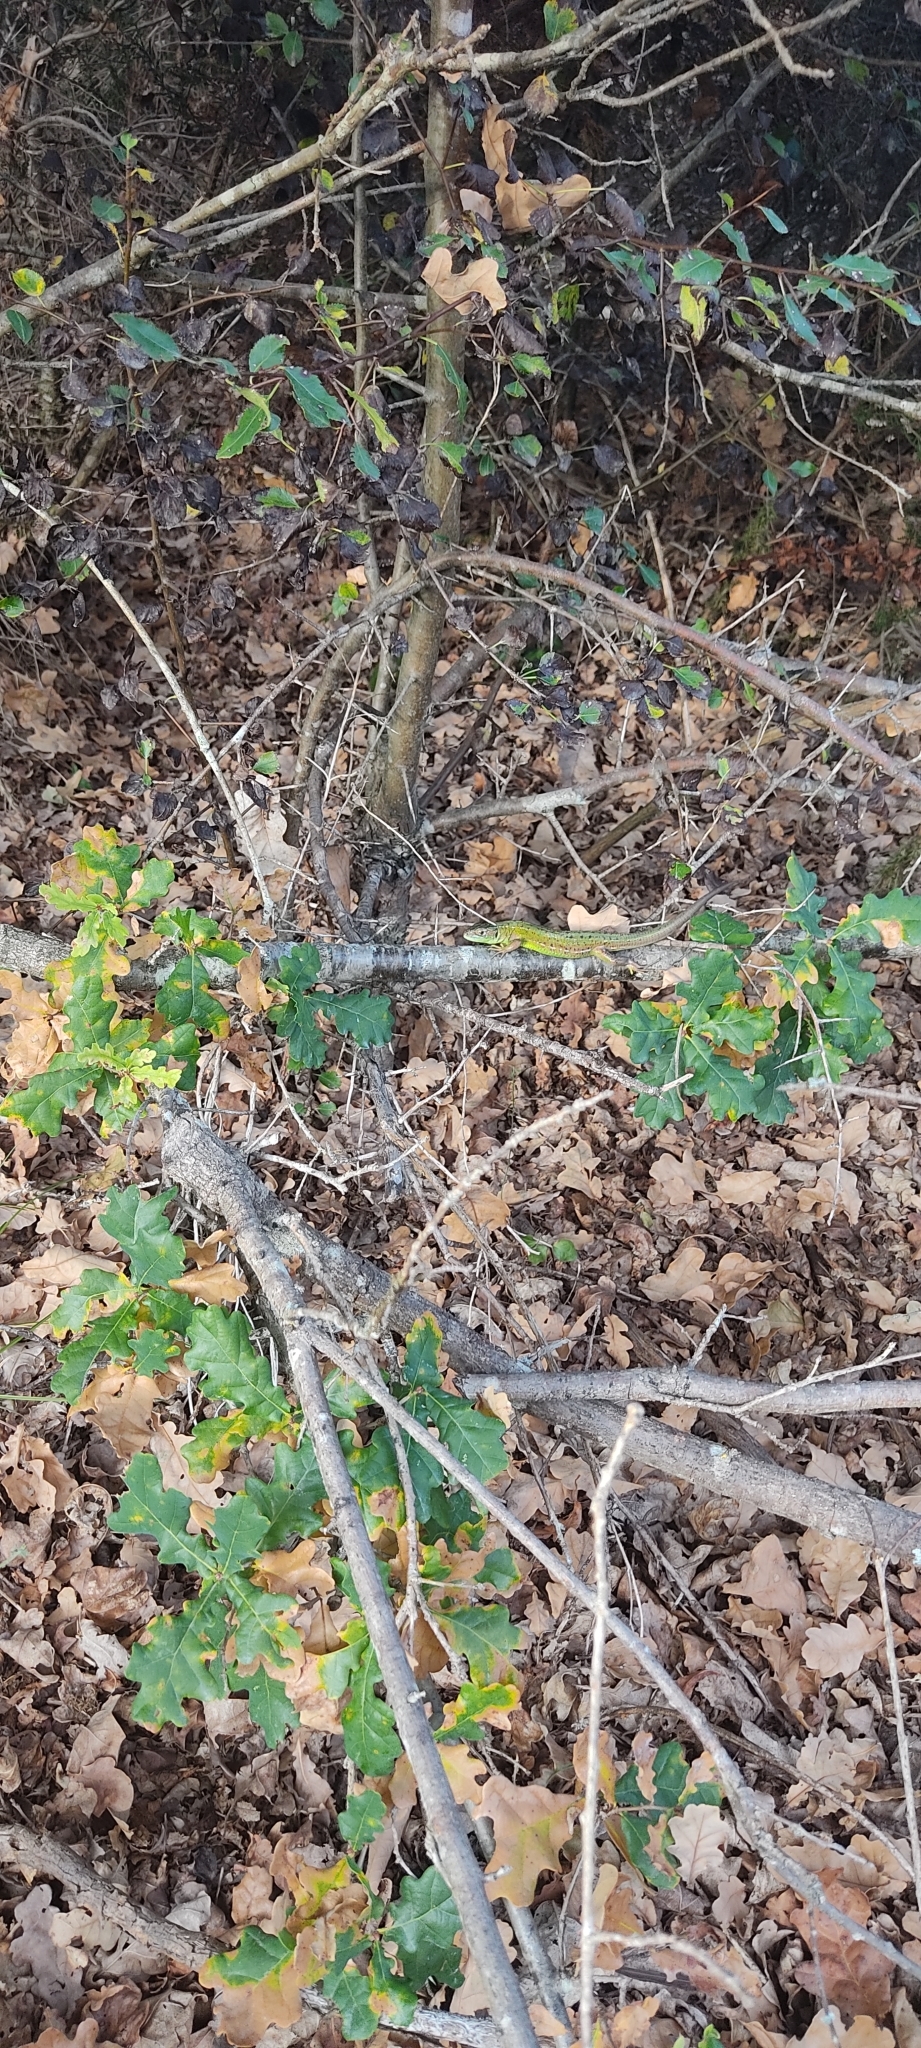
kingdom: Animalia
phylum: Chordata
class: Squamata
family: Lacertidae
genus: Lacerta
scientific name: Lacerta bilineata
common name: Western green lizard
